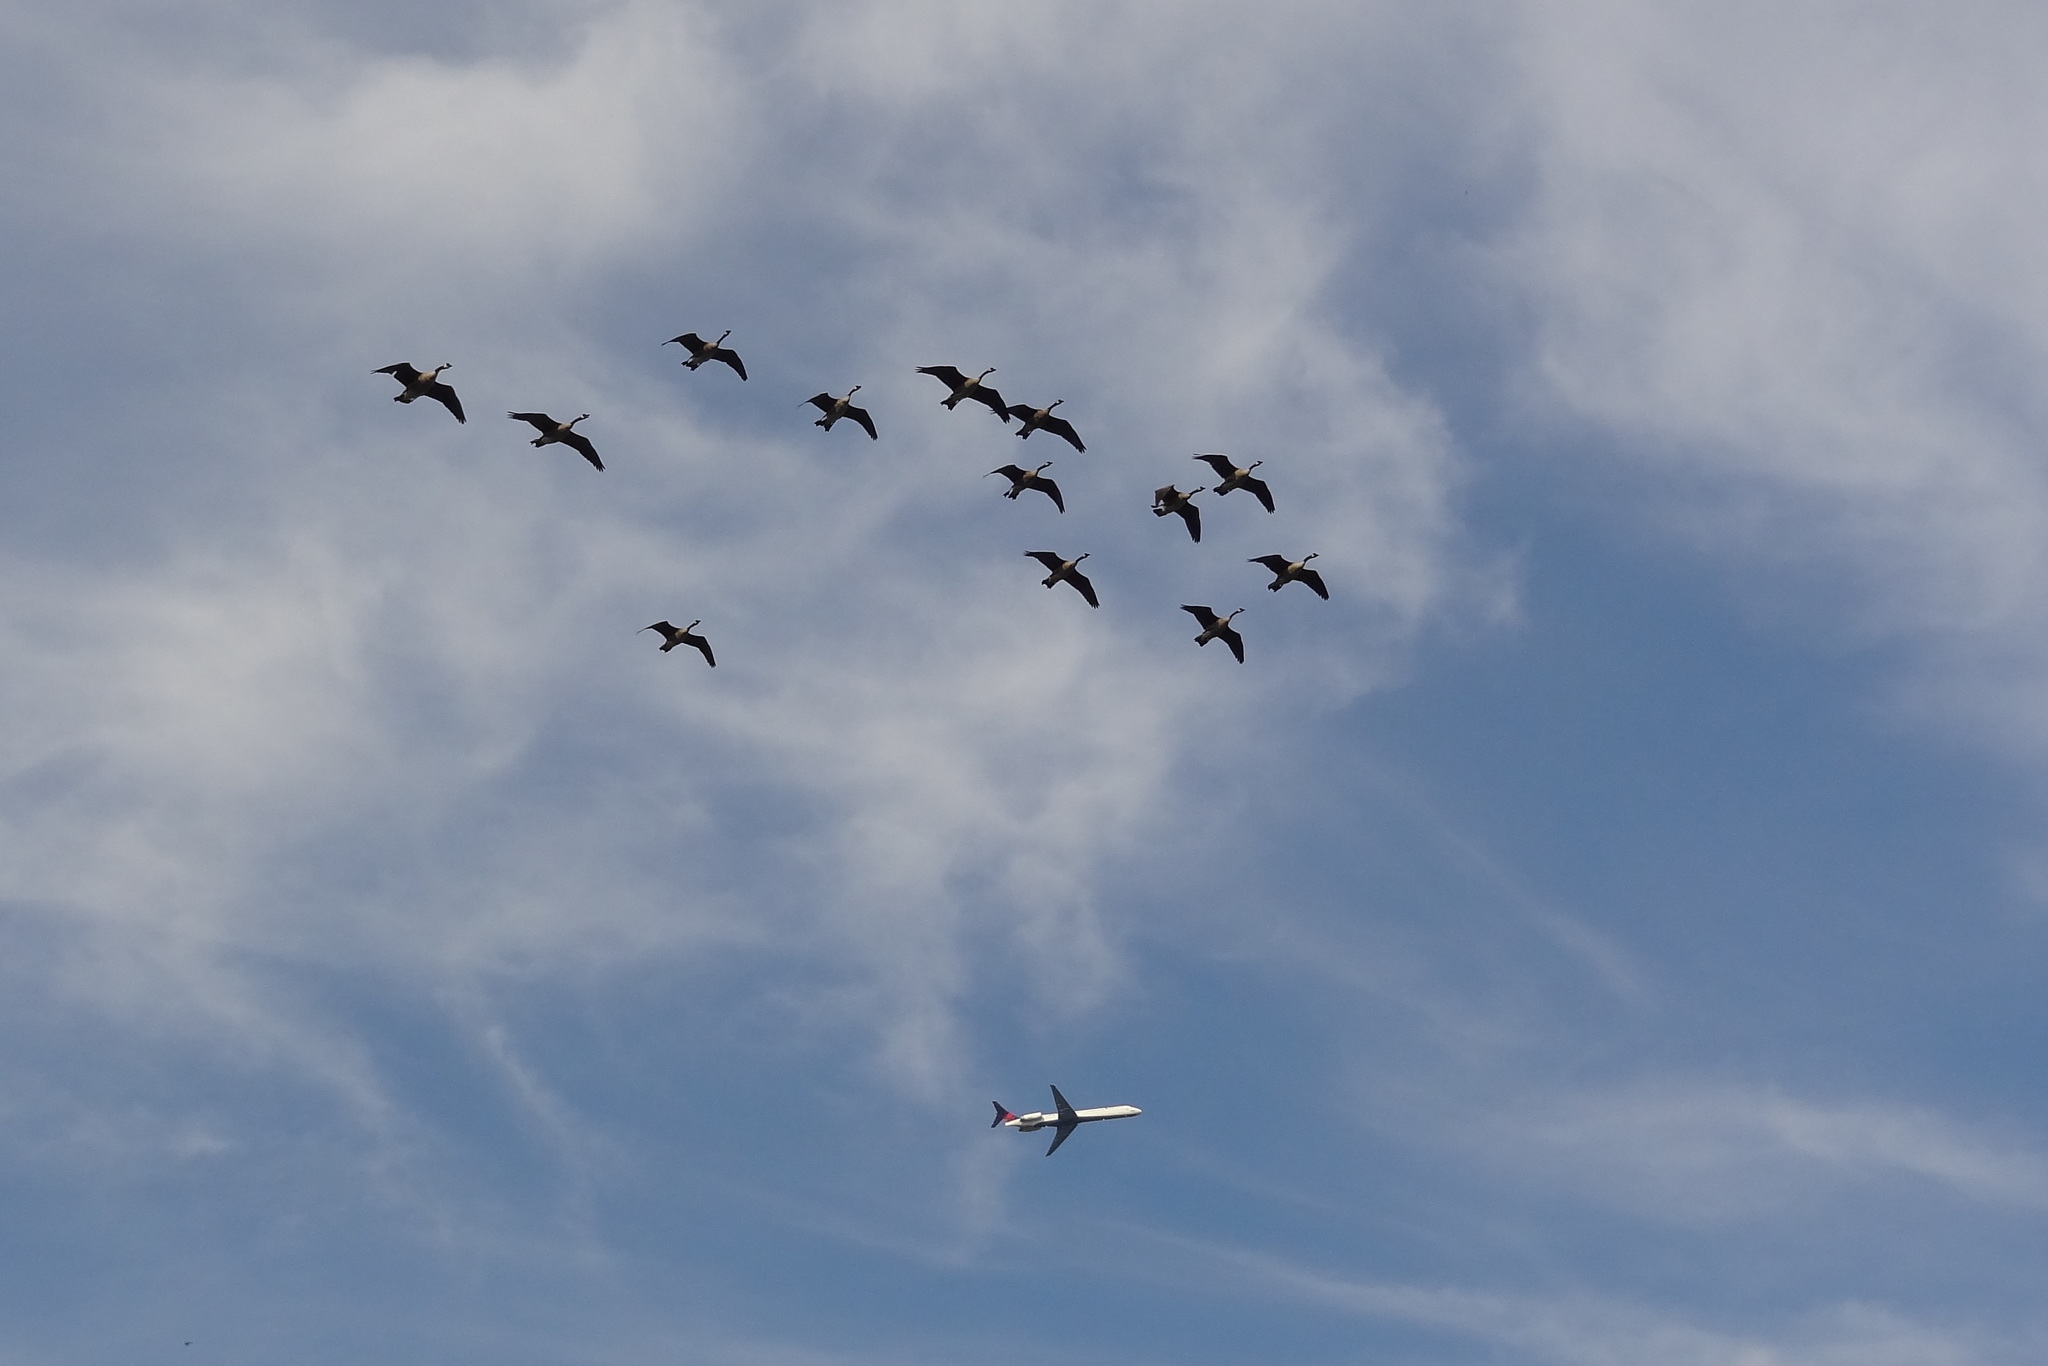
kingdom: Animalia
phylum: Chordata
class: Aves
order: Anseriformes
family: Anatidae
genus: Branta
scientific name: Branta canadensis
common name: Canada goose
